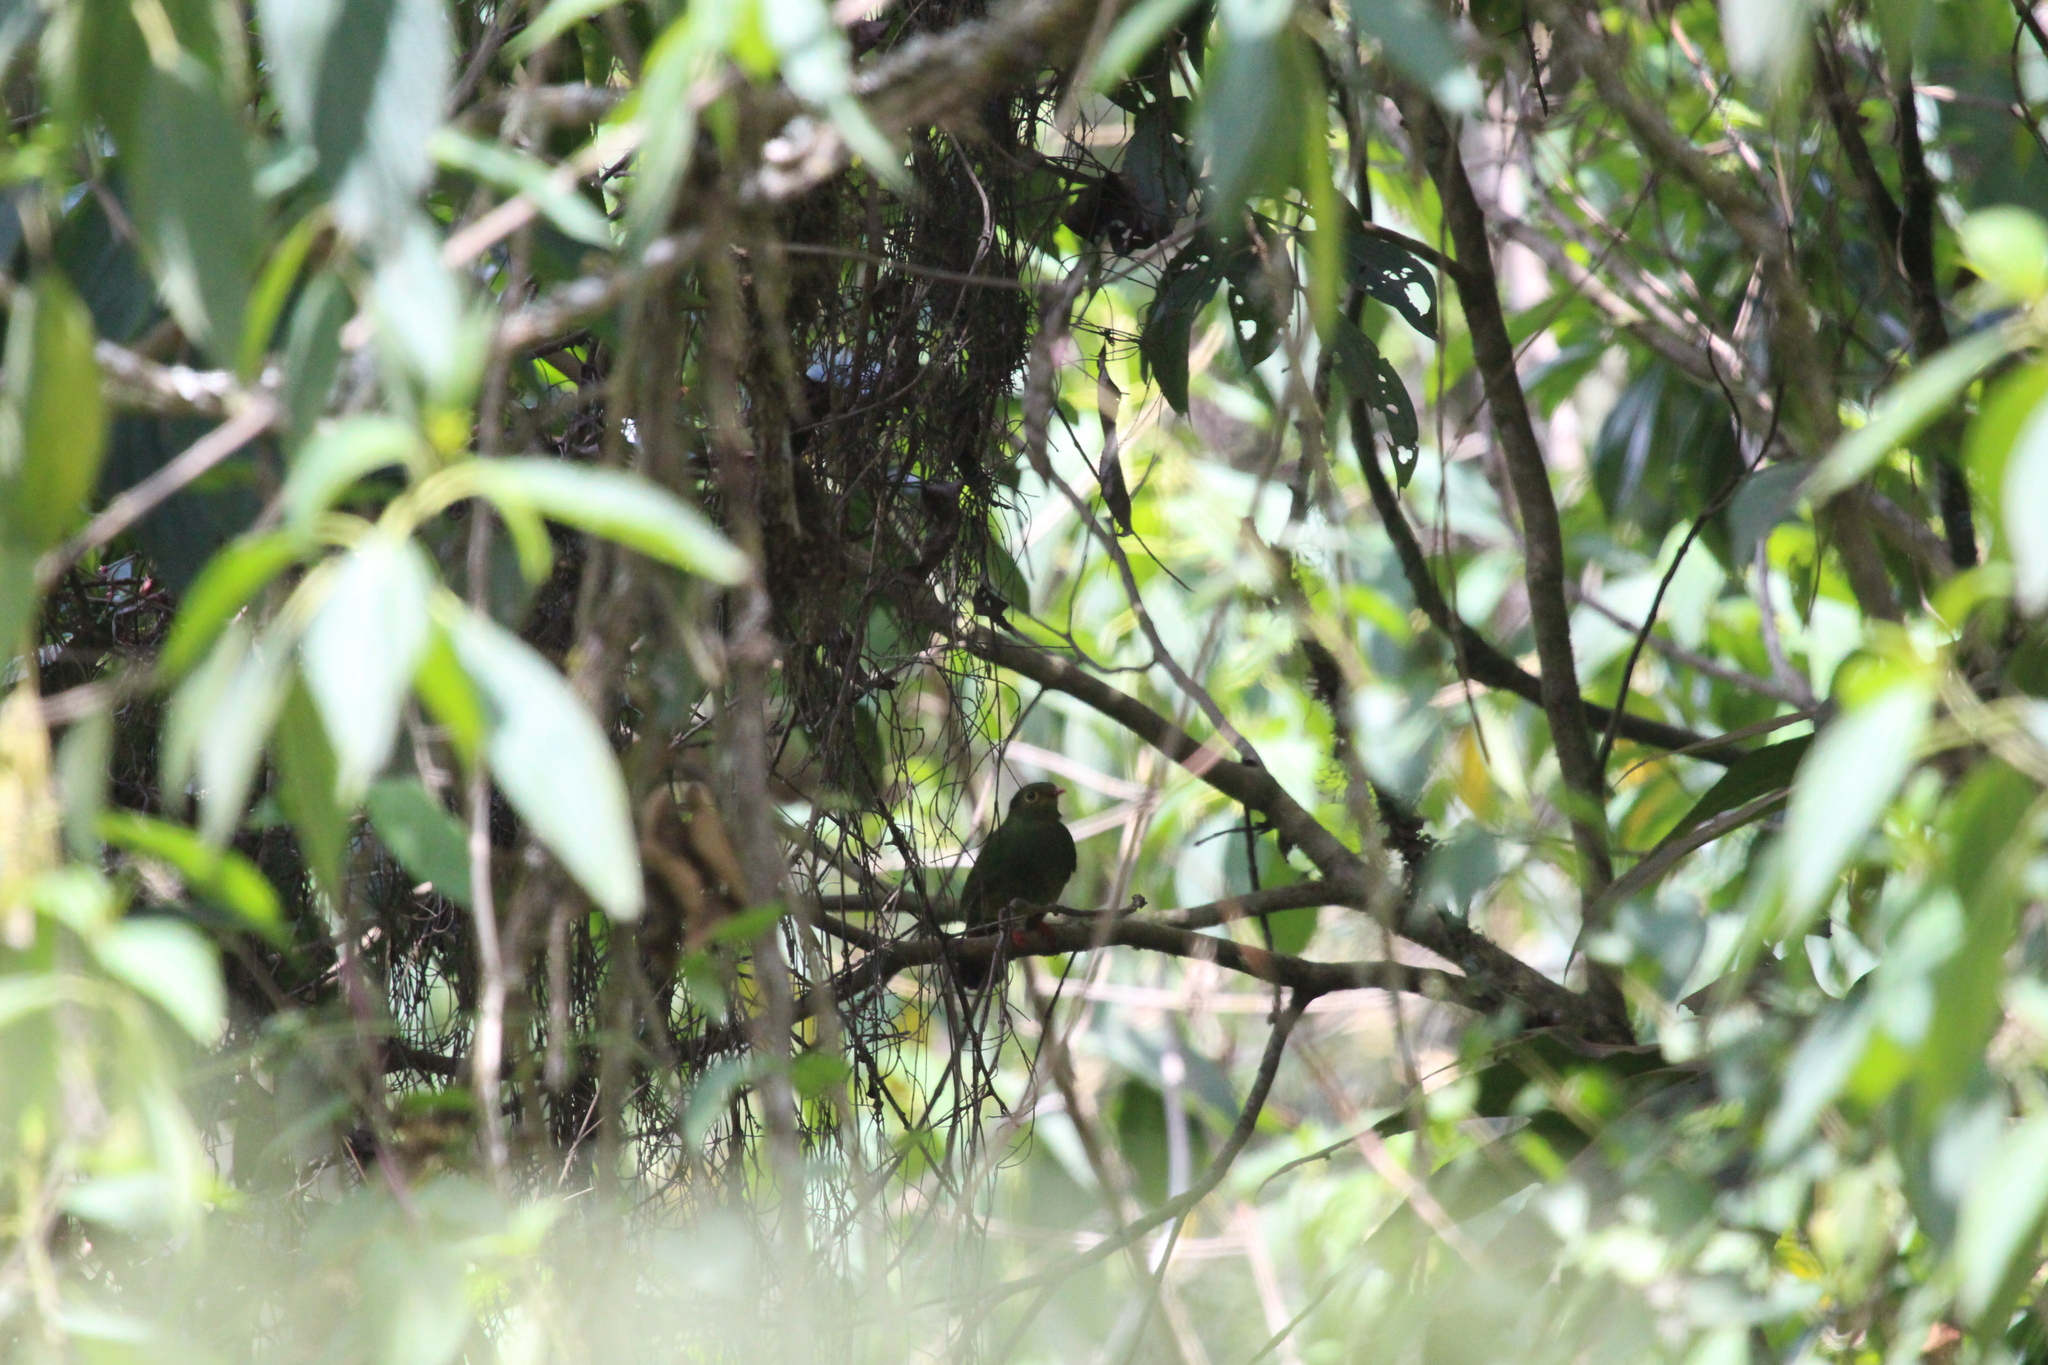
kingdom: Animalia
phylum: Chordata
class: Aves
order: Passeriformes
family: Cotingidae
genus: Pipreola
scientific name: Pipreola intermedia
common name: Band-tailed fruiteater
